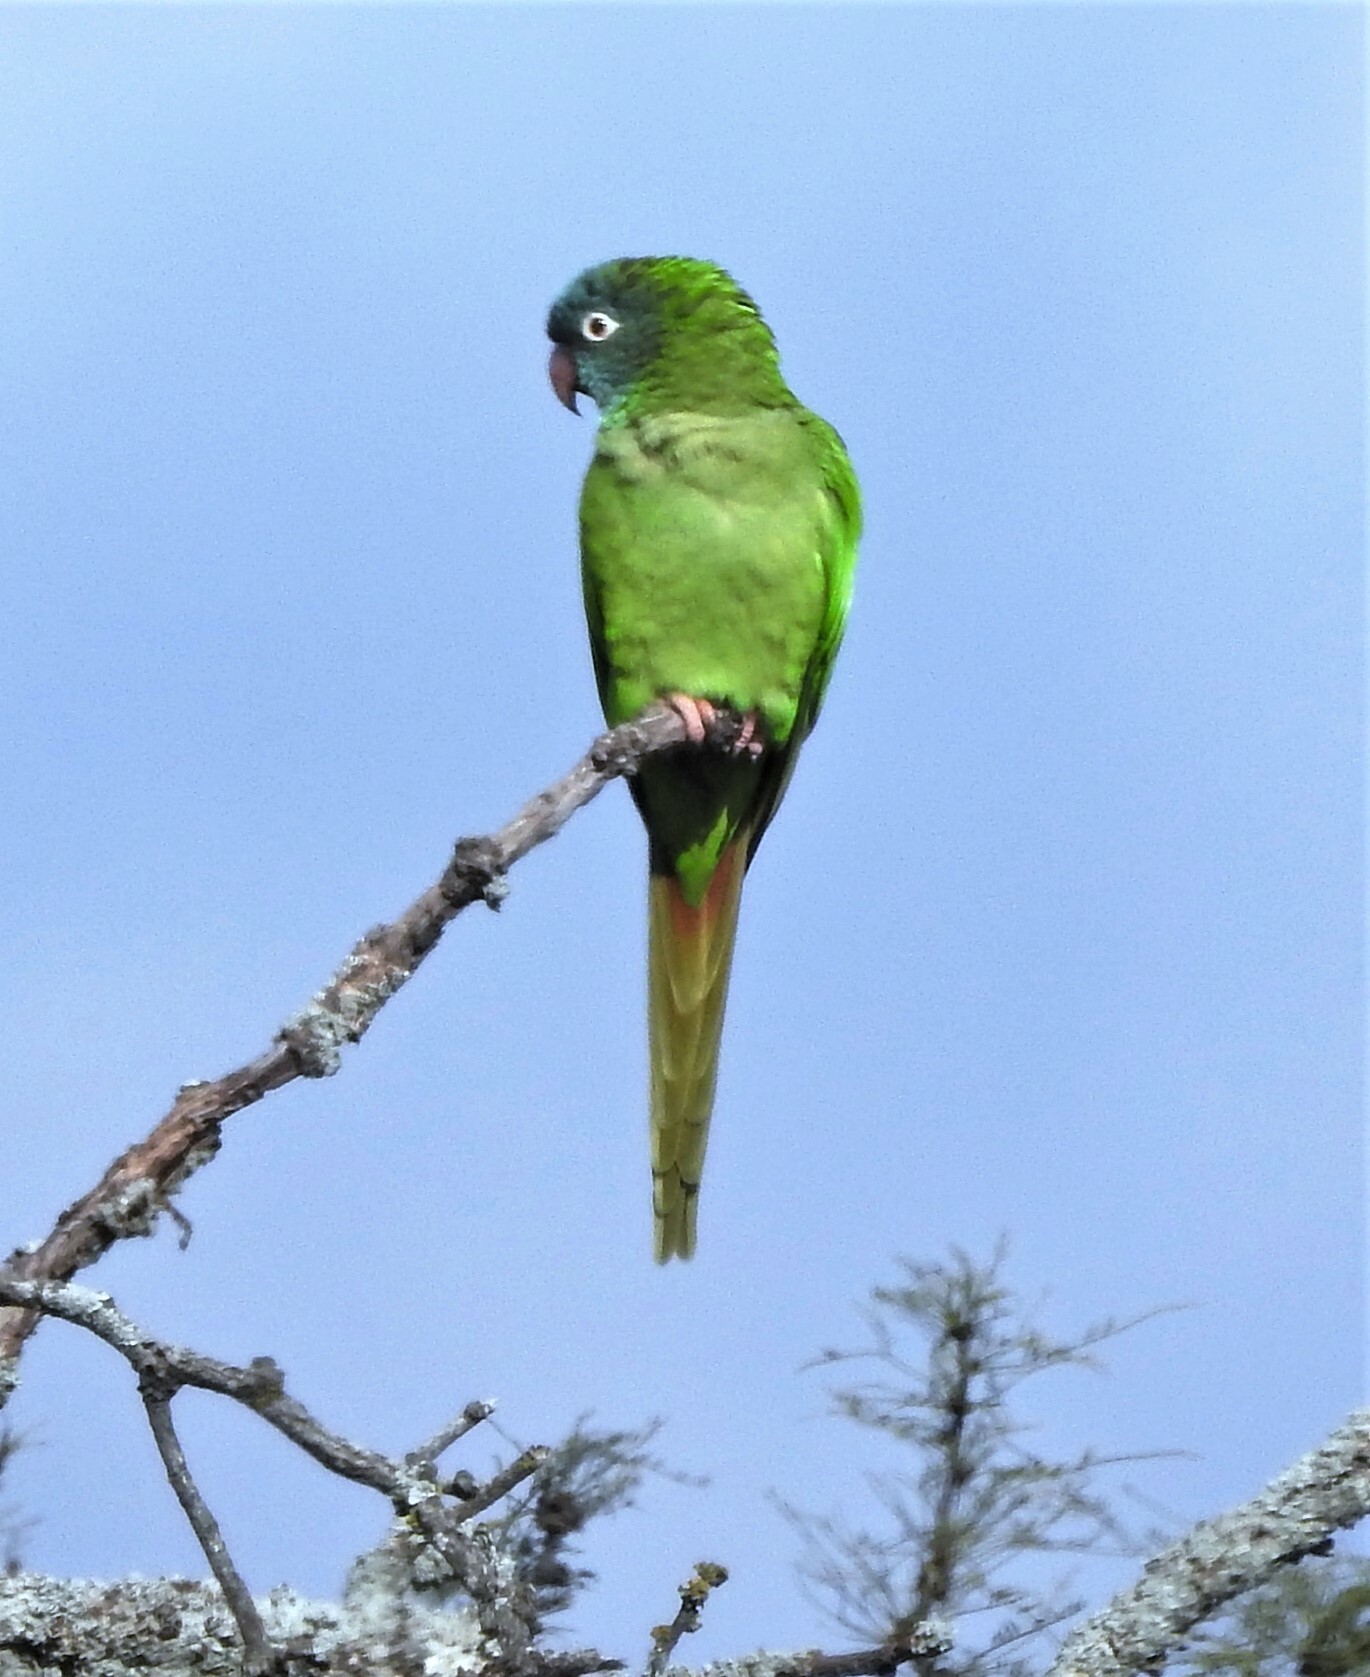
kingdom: Animalia
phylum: Chordata
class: Aves
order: Psittaciformes
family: Psittacidae
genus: Aratinga
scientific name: Aratinga acuticaudata
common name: Blue-crowned parakeet
